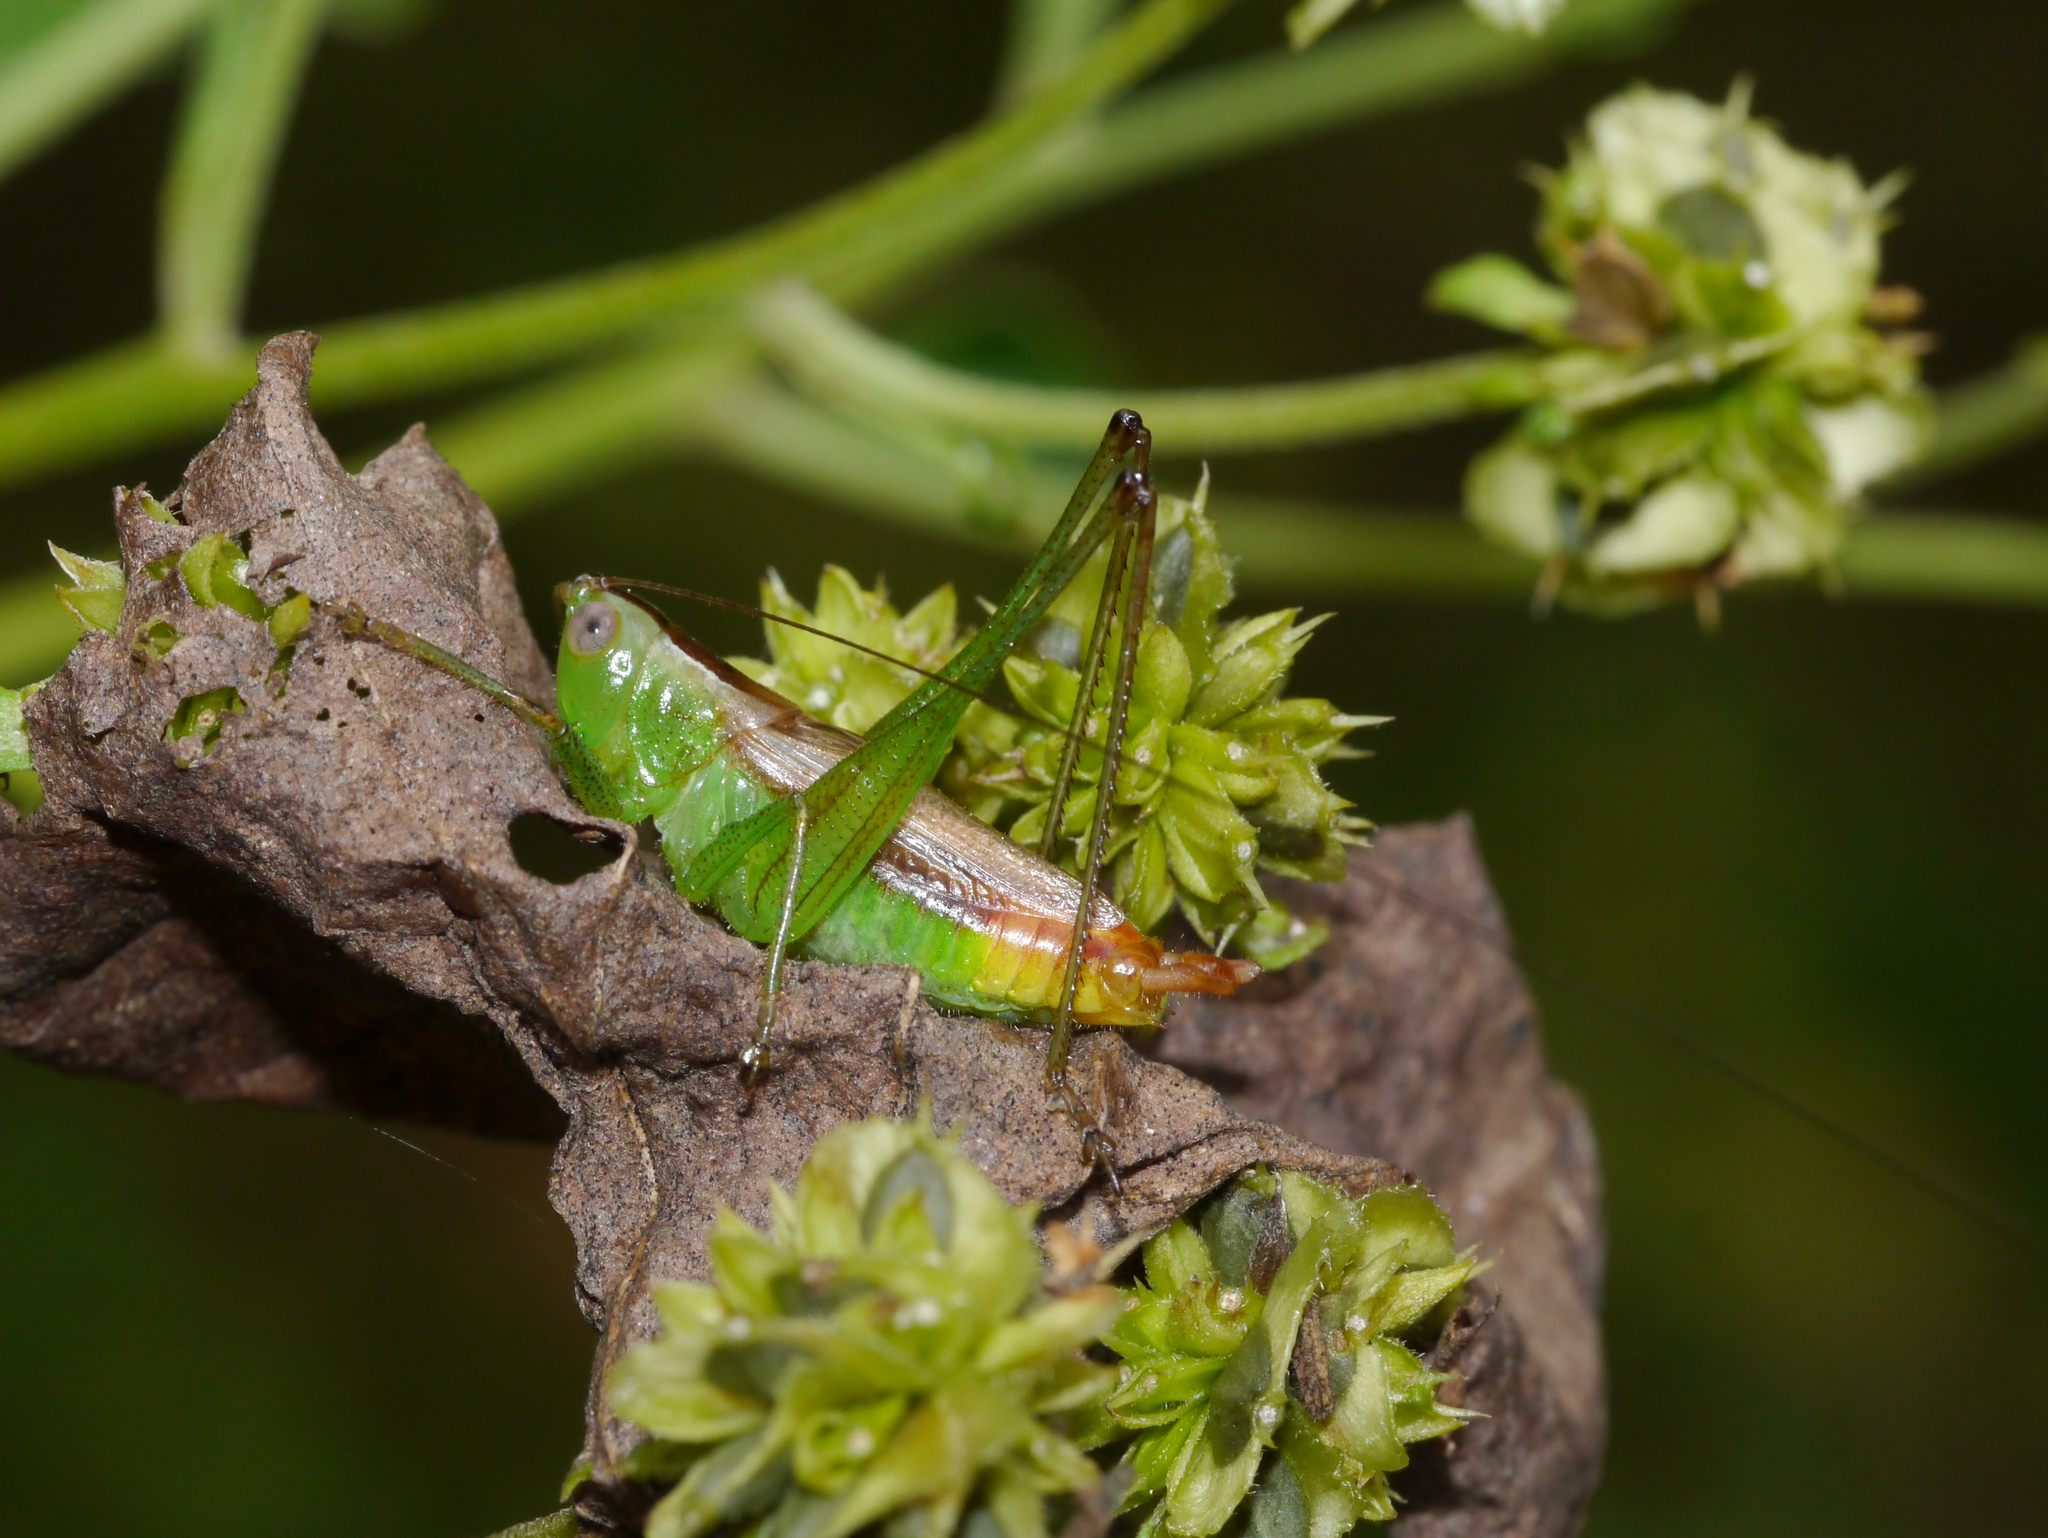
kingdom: Animalia
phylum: Arthropoda
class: Insecta
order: Orthoptera
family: Tettigoniidae
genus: Conocephalus
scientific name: Conocephalus brevipennis
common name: Short-winged meadow katydid
